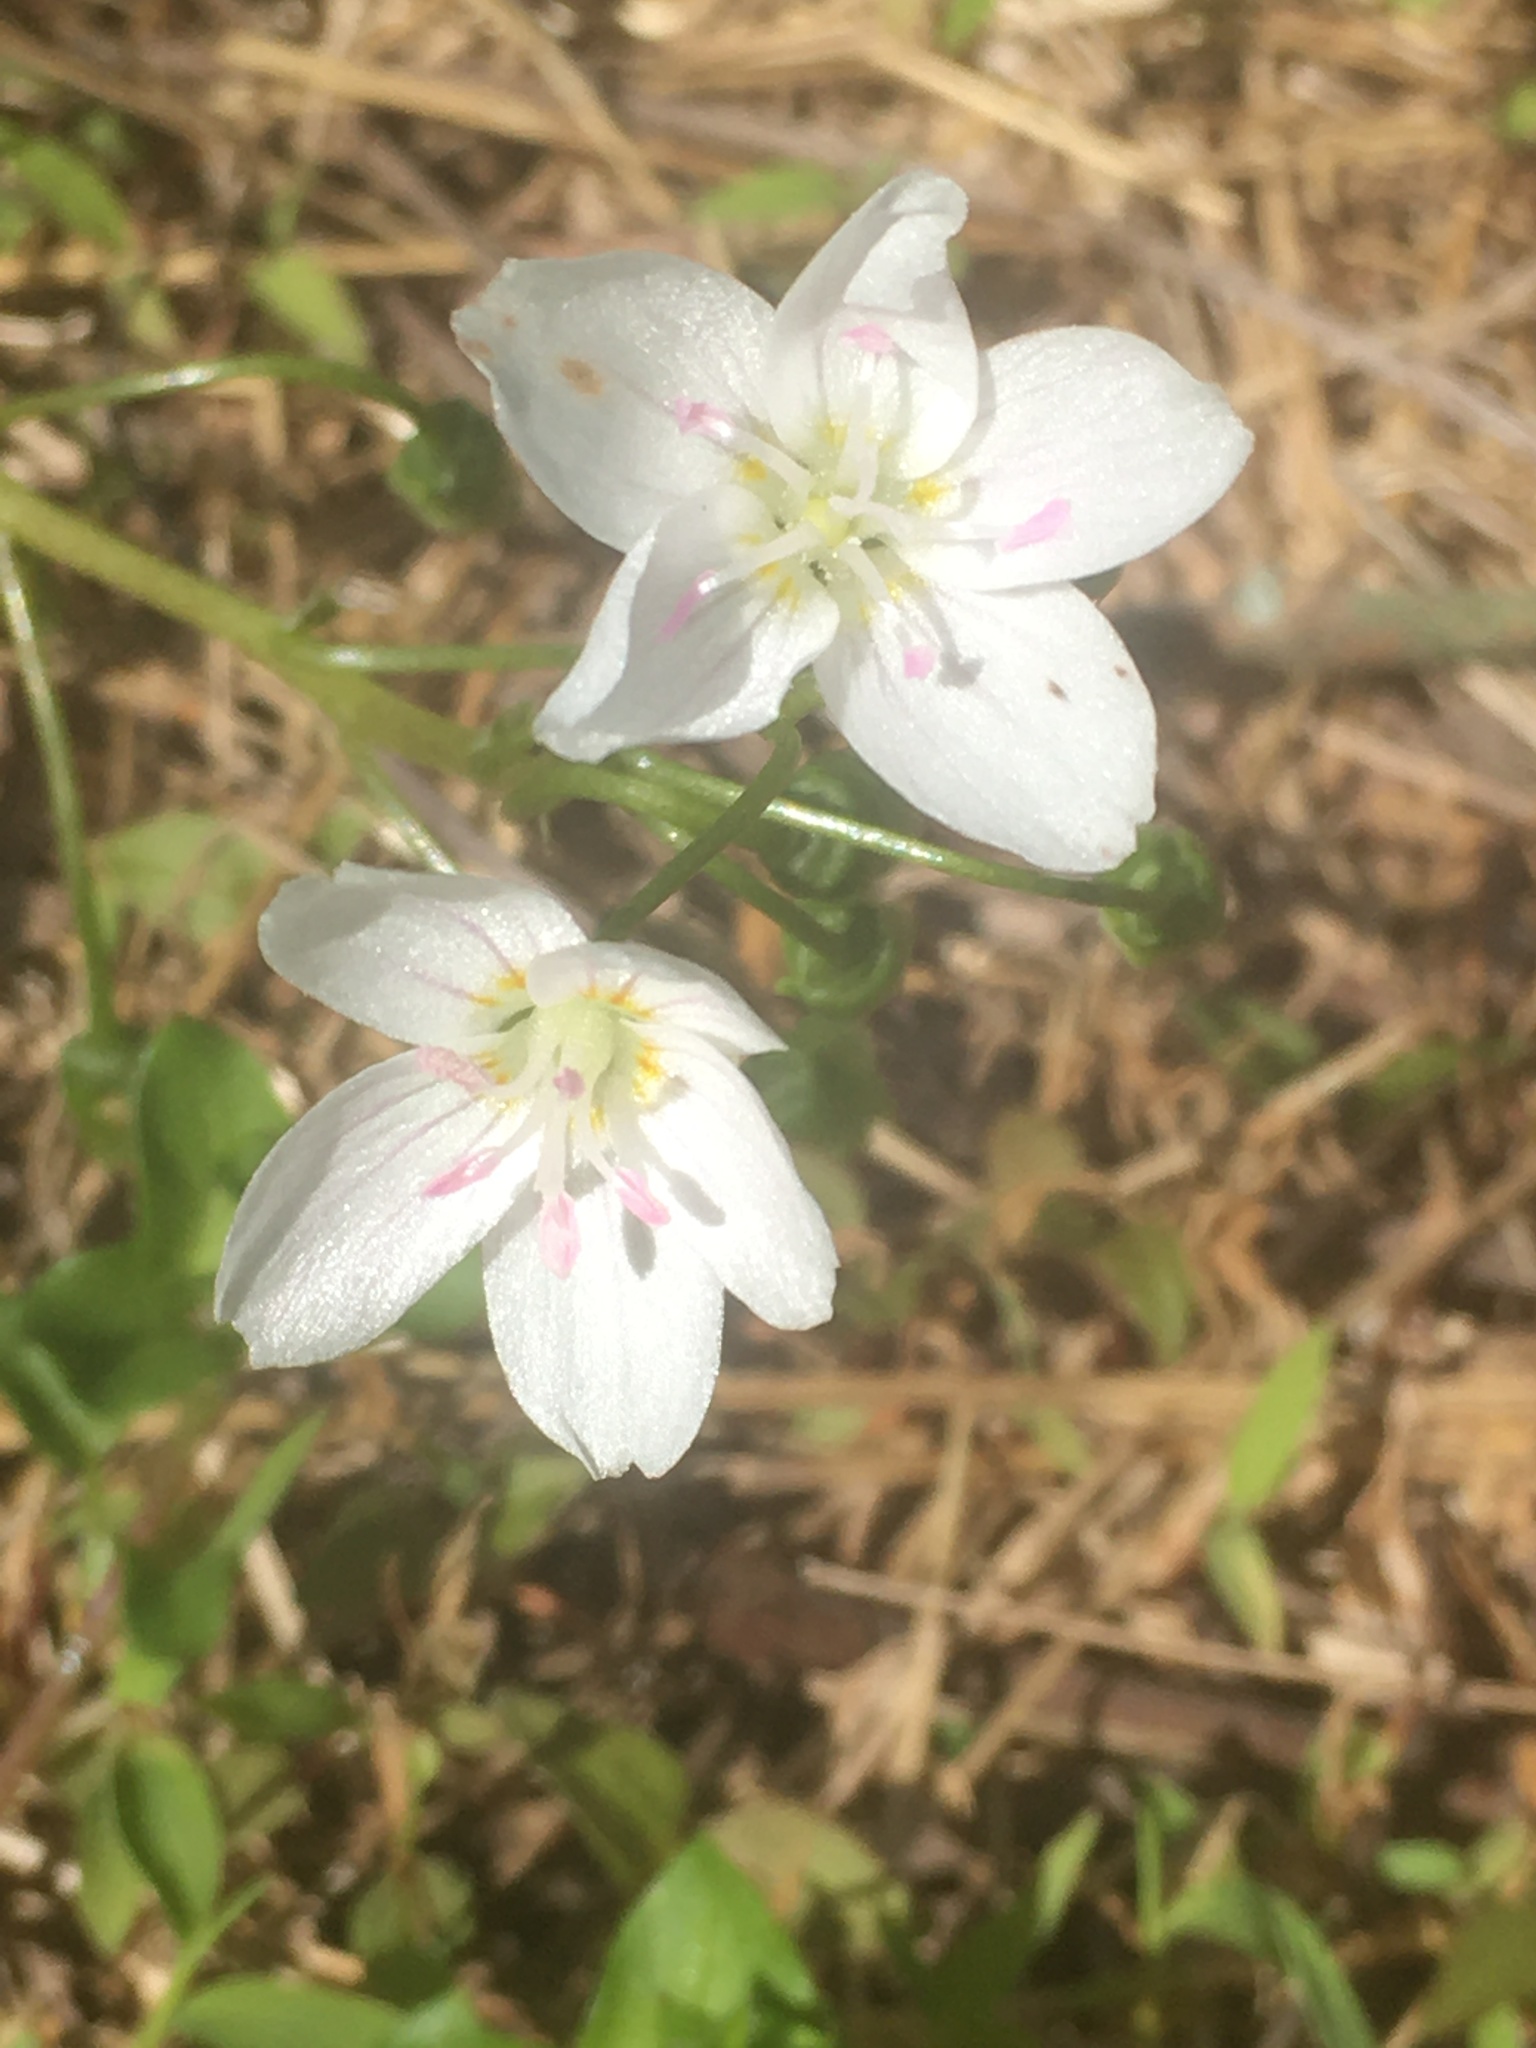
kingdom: Plantae
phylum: Tracheophyta
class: Magnoliopsida
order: Caryophyllales
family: Montiaceae
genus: Claytonia
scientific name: Claytonia
